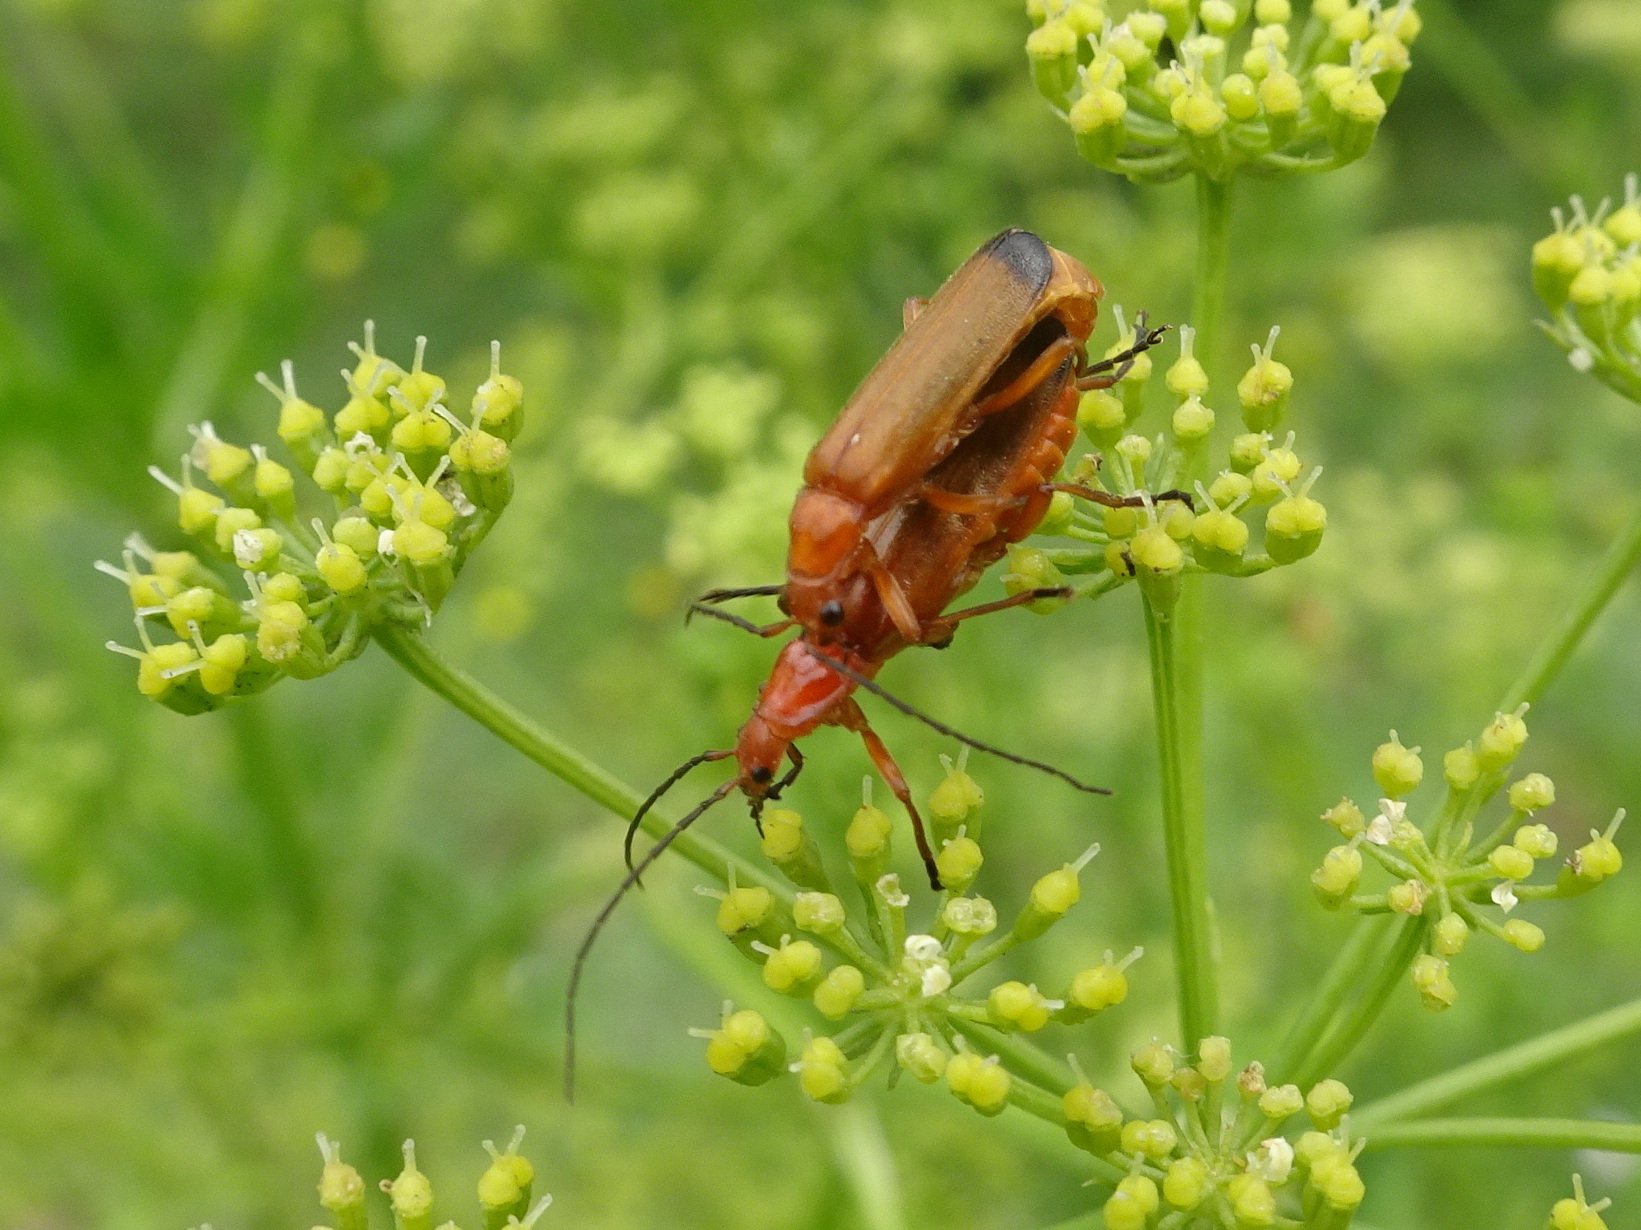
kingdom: Animalia
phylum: Arthropoda
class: Insecta
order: Coleoptera
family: Cantharidae
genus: Rhagonycha
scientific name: Rhagonycha fulva
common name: Common red soldier beetle
